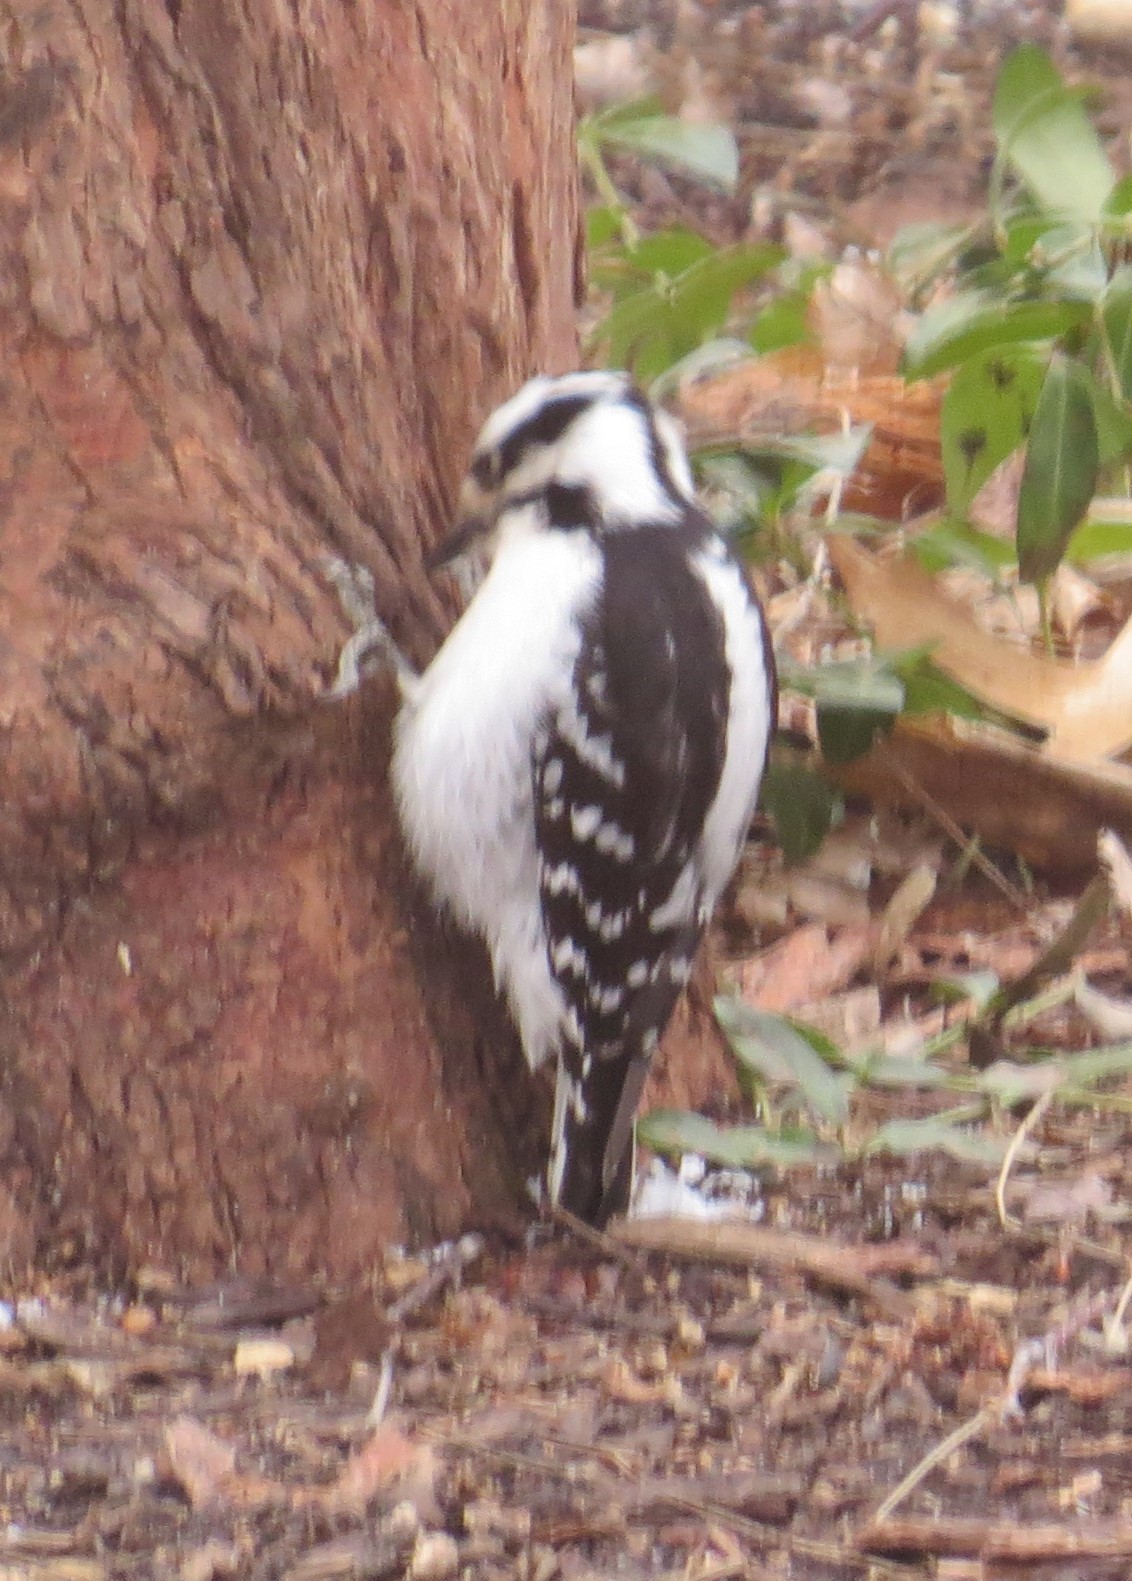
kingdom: Animalia
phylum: Chordata
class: Aves
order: Piciformes
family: Picidae
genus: Dryobates
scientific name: Dryobates pubescens
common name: Downy woodpecker
